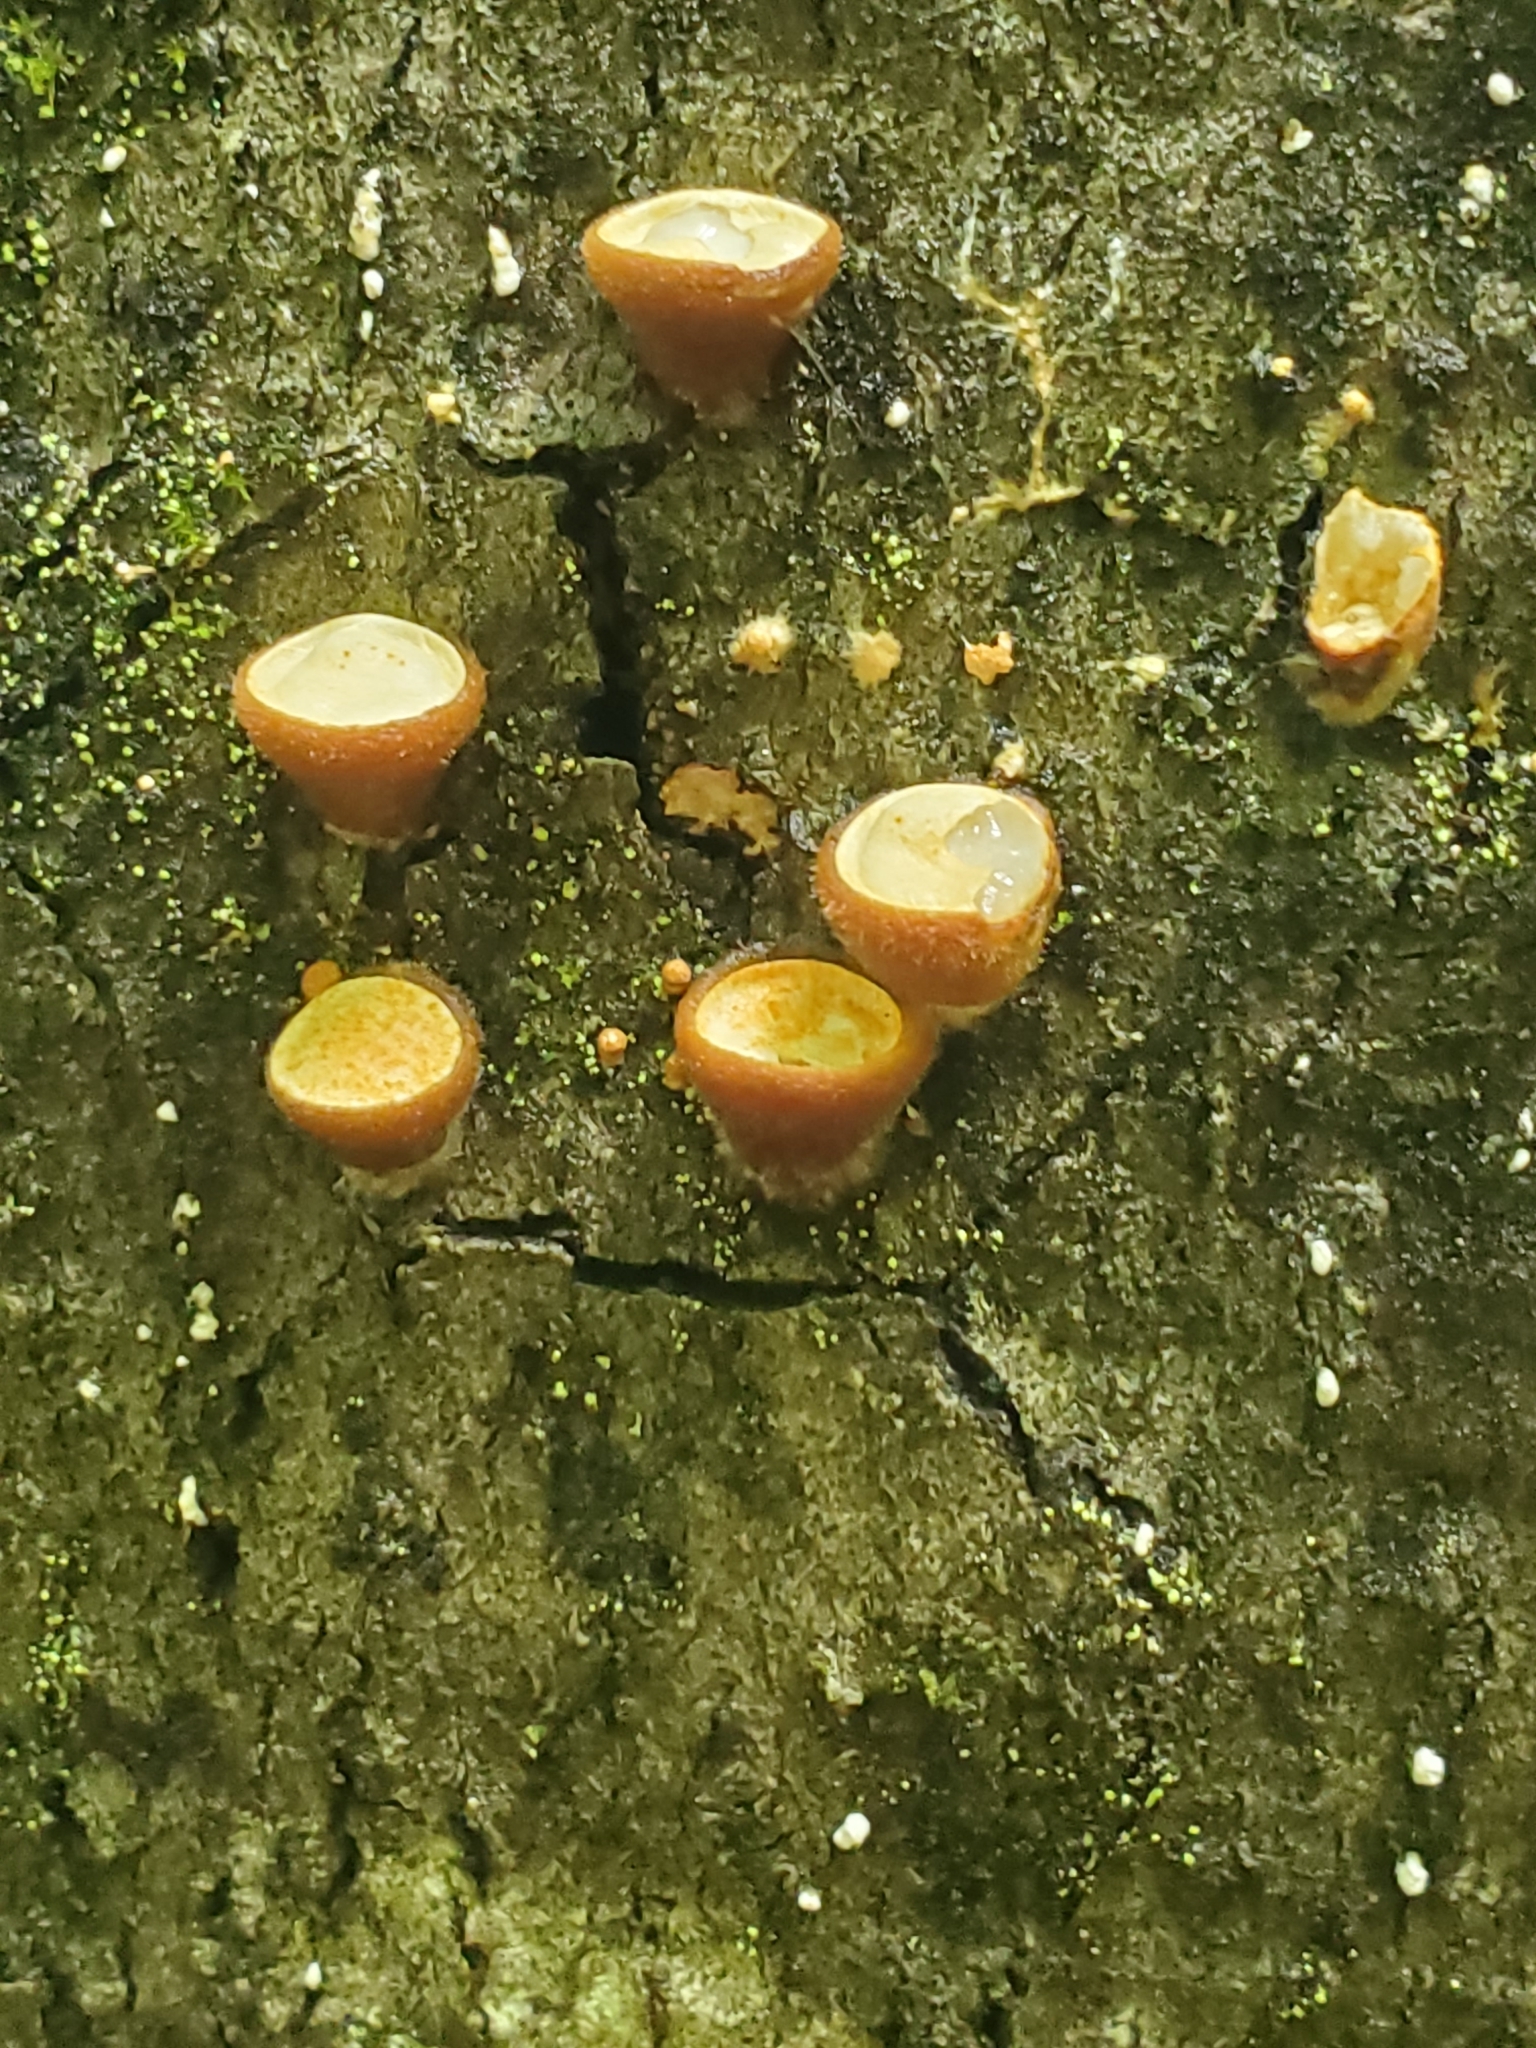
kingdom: Fungi
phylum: Basidiomycota
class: Agaricomycetes
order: Agaricales
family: Nidulariaceae
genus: Crucibulum
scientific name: Crucibulum laeve
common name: Common bird's nest
